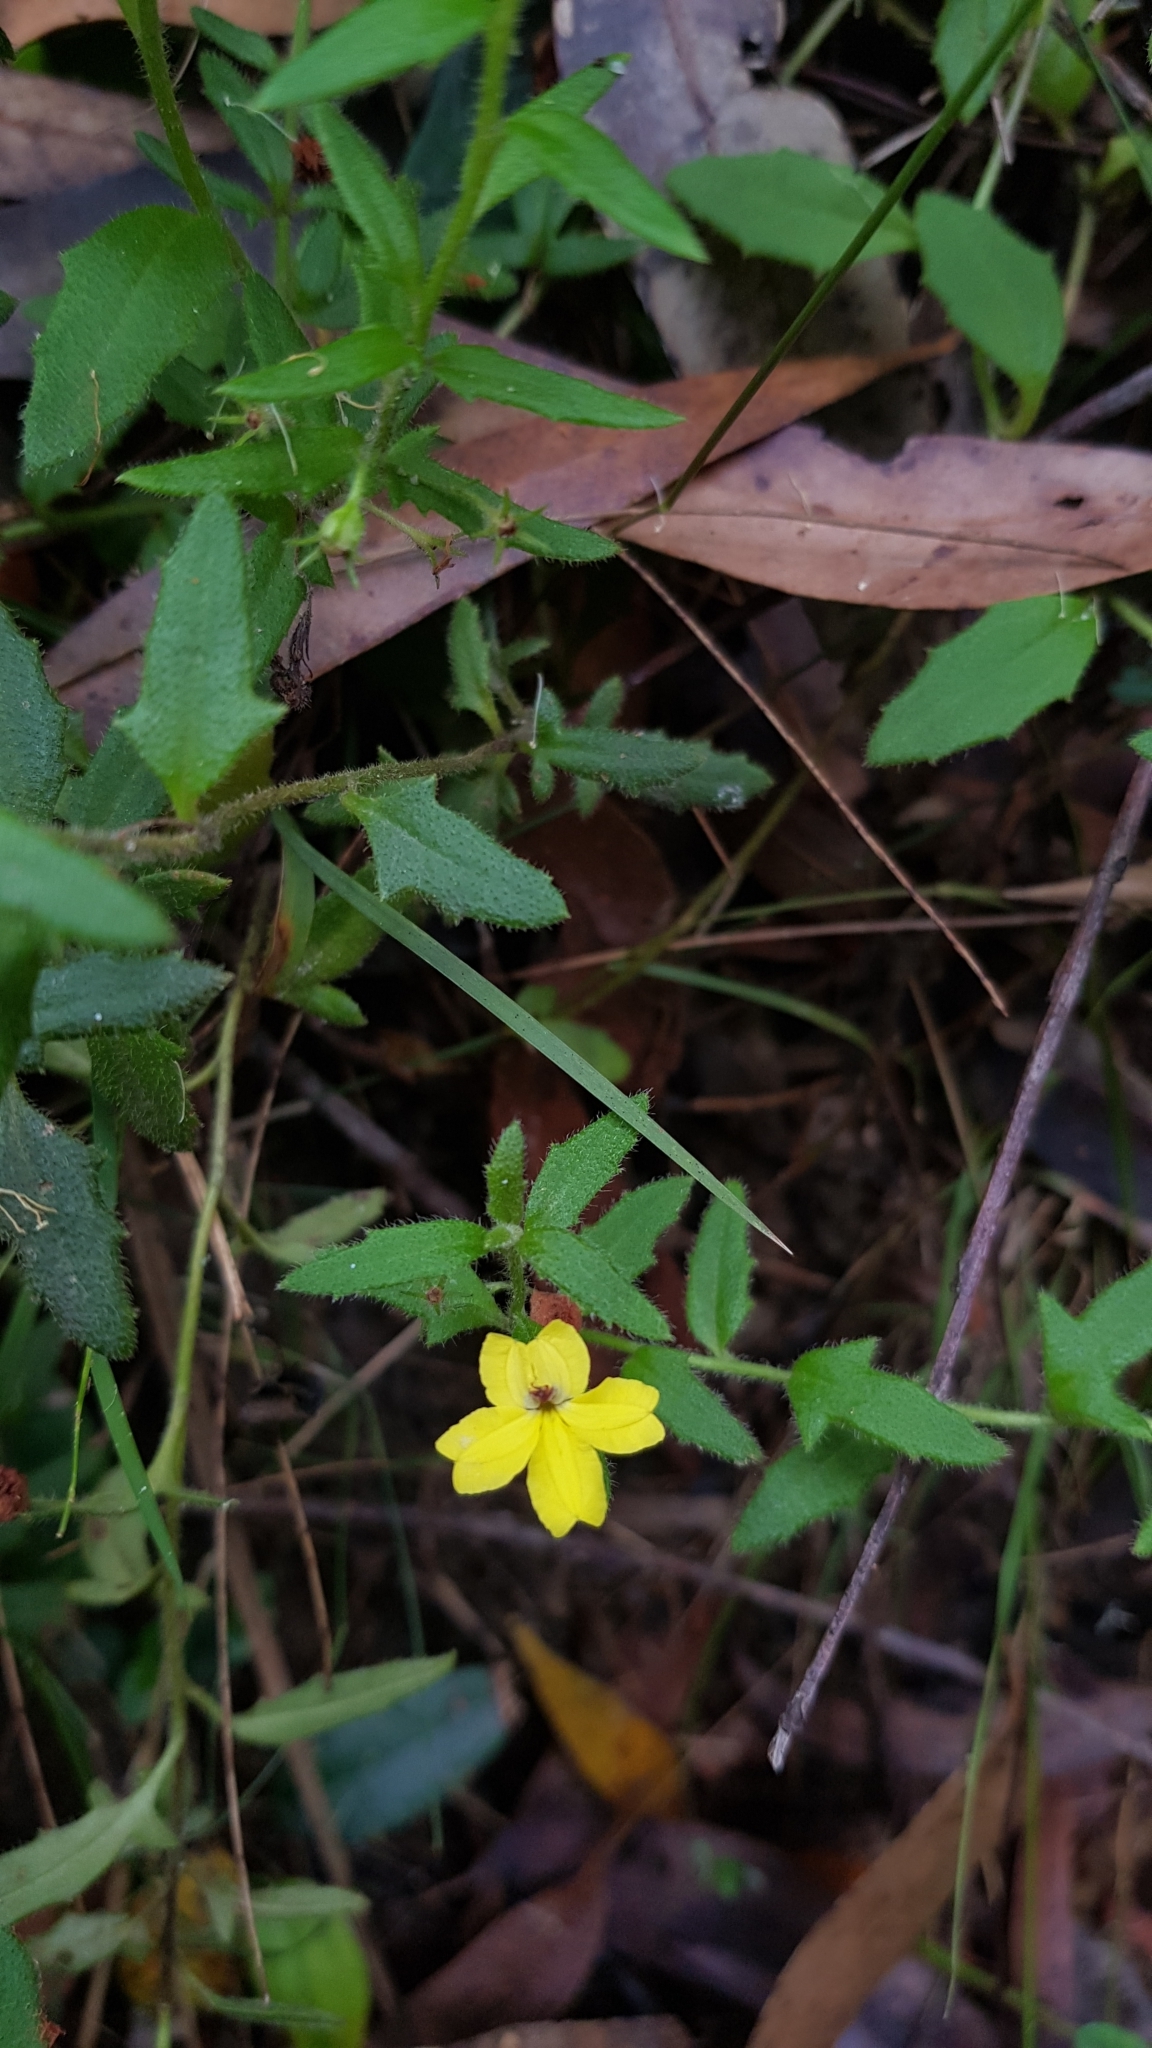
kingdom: Plantae
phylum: Tracheophyta
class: Magnoliopsida
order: Asterales
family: Goodeniaceae
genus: Goodenia
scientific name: Goodenia heterophylla
